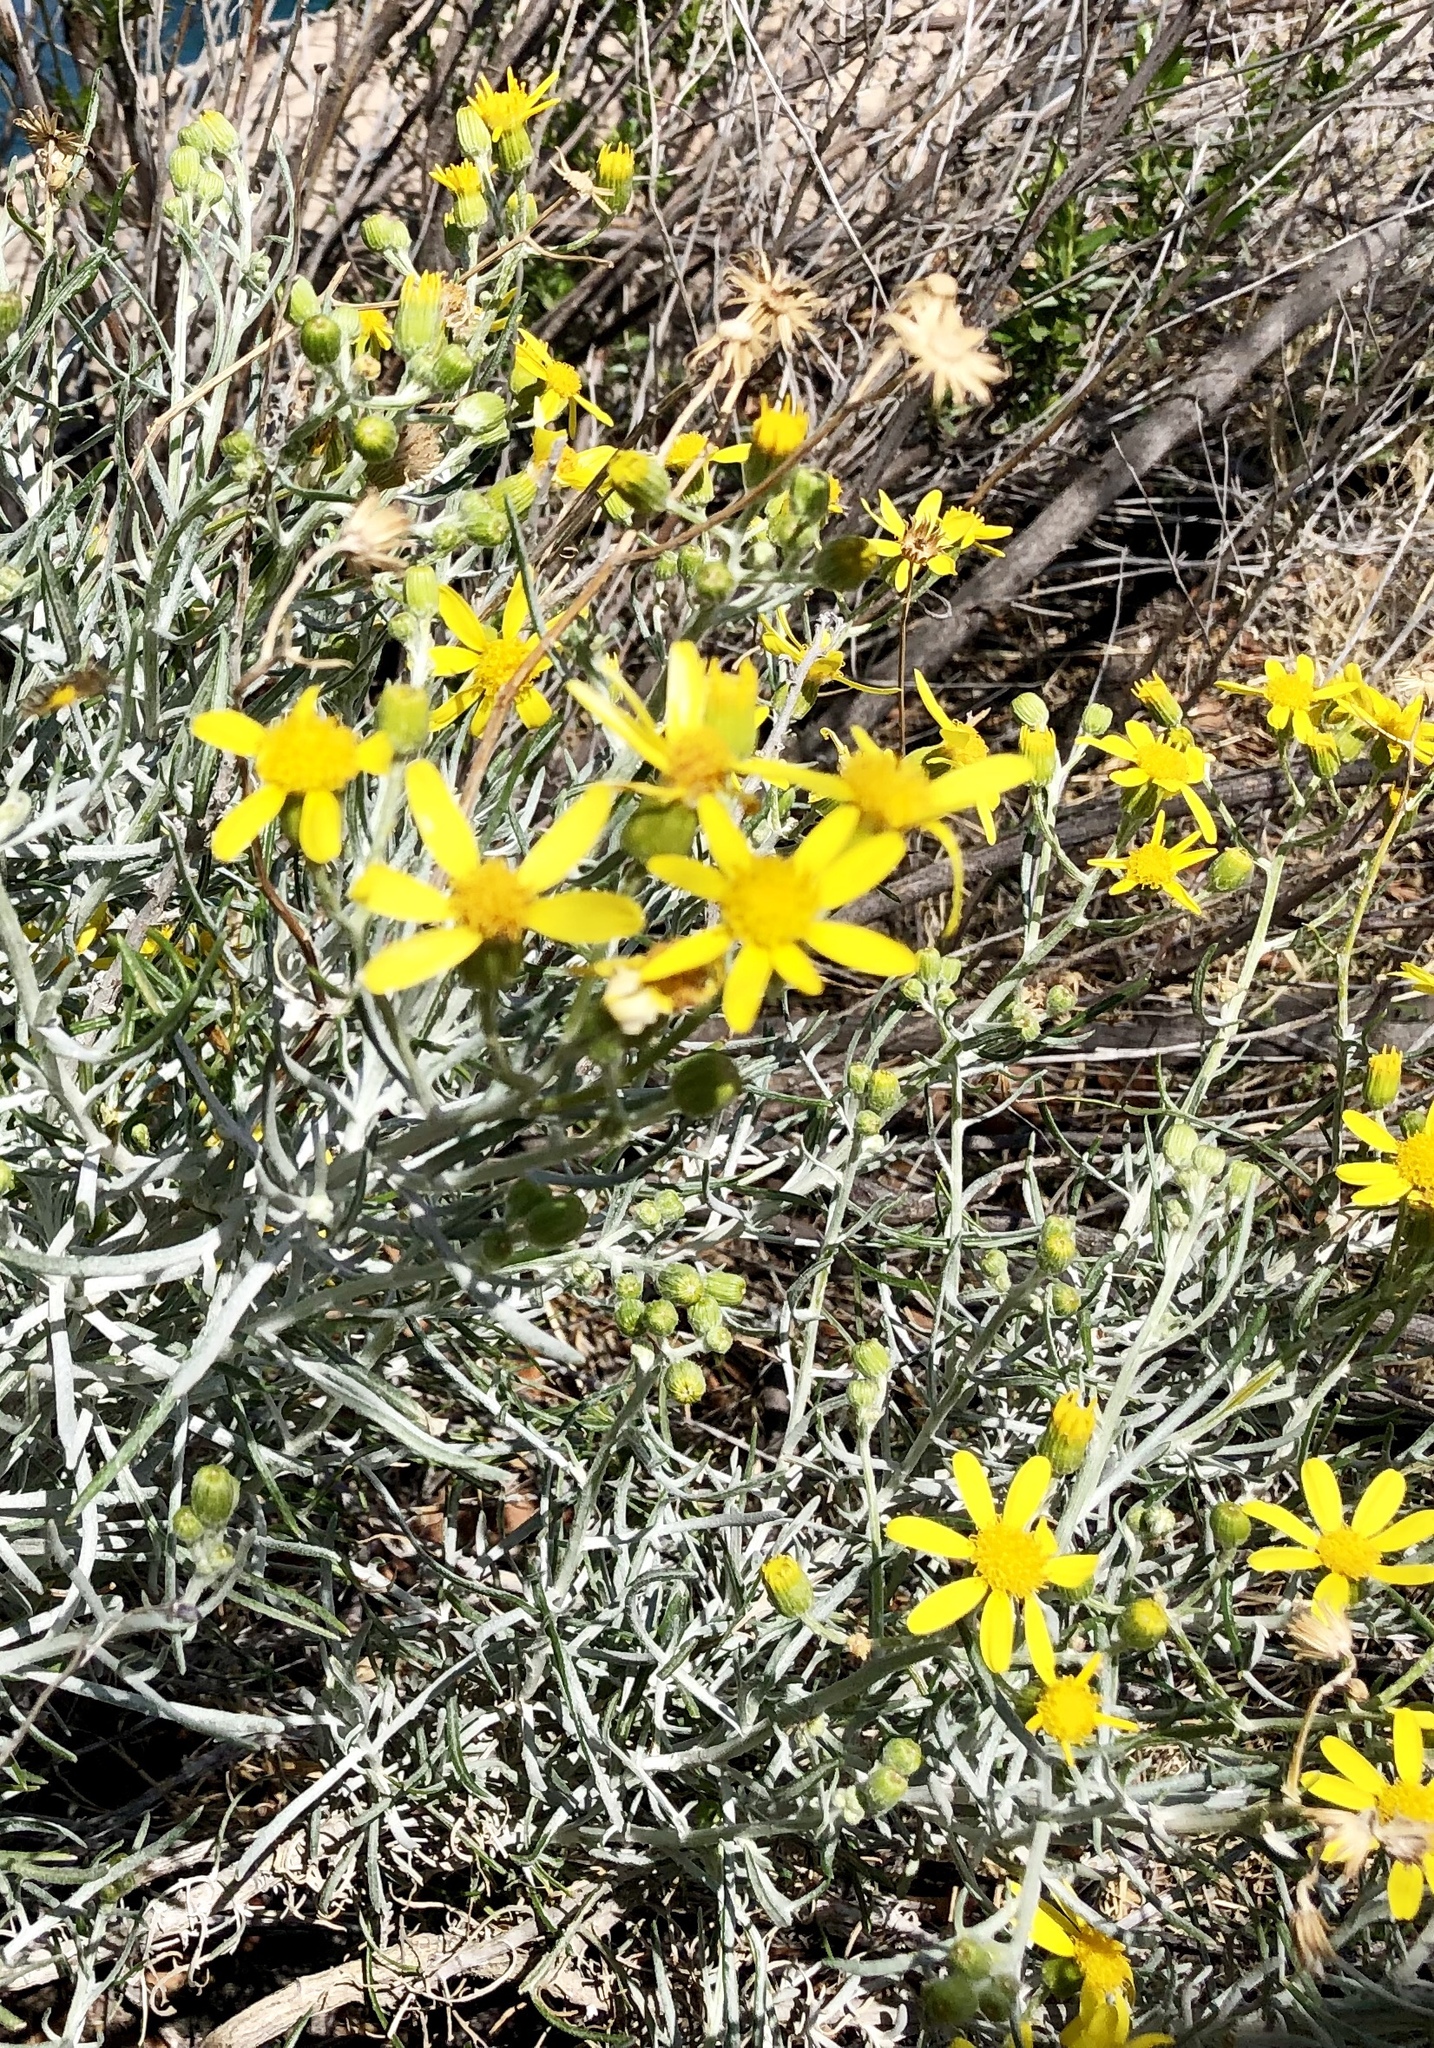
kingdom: Plantae
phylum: Tracheophyta
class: Magnoliopsida
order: Asterales
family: Asteraceae
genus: Senecio
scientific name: Senecio flaccidus
